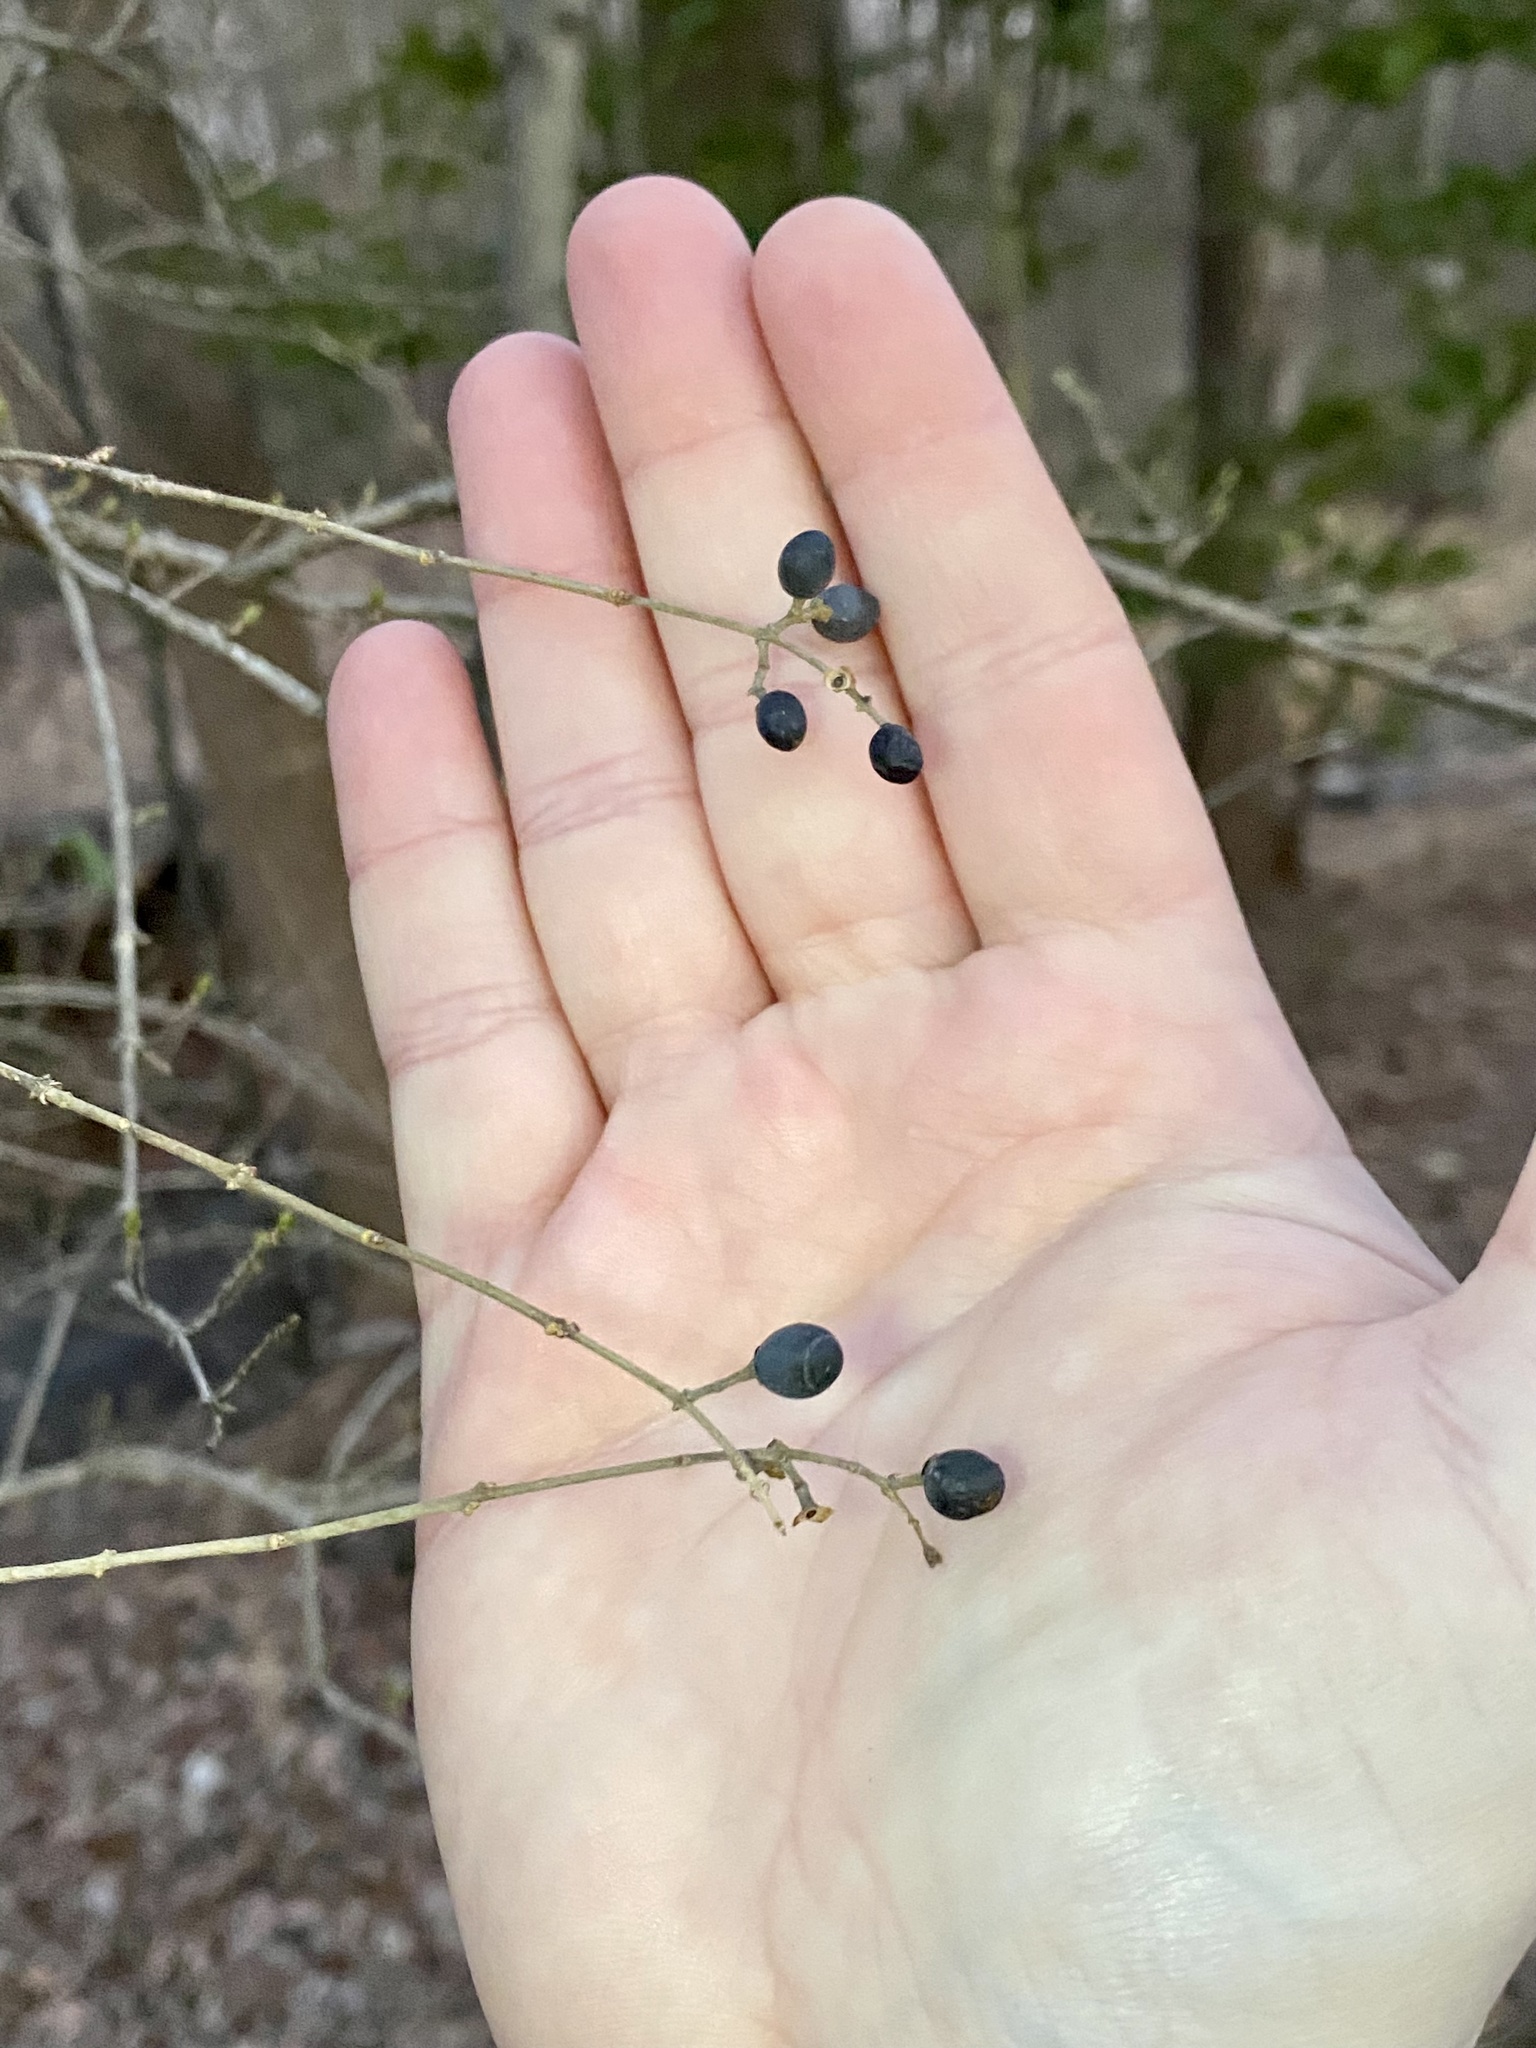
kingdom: Plantae
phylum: Tracheophyta
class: Magnoliopsida
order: Lamiales
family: Oleaceae
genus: Ligustrum
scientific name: Ligustrum obtusifolium
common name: Border privet
